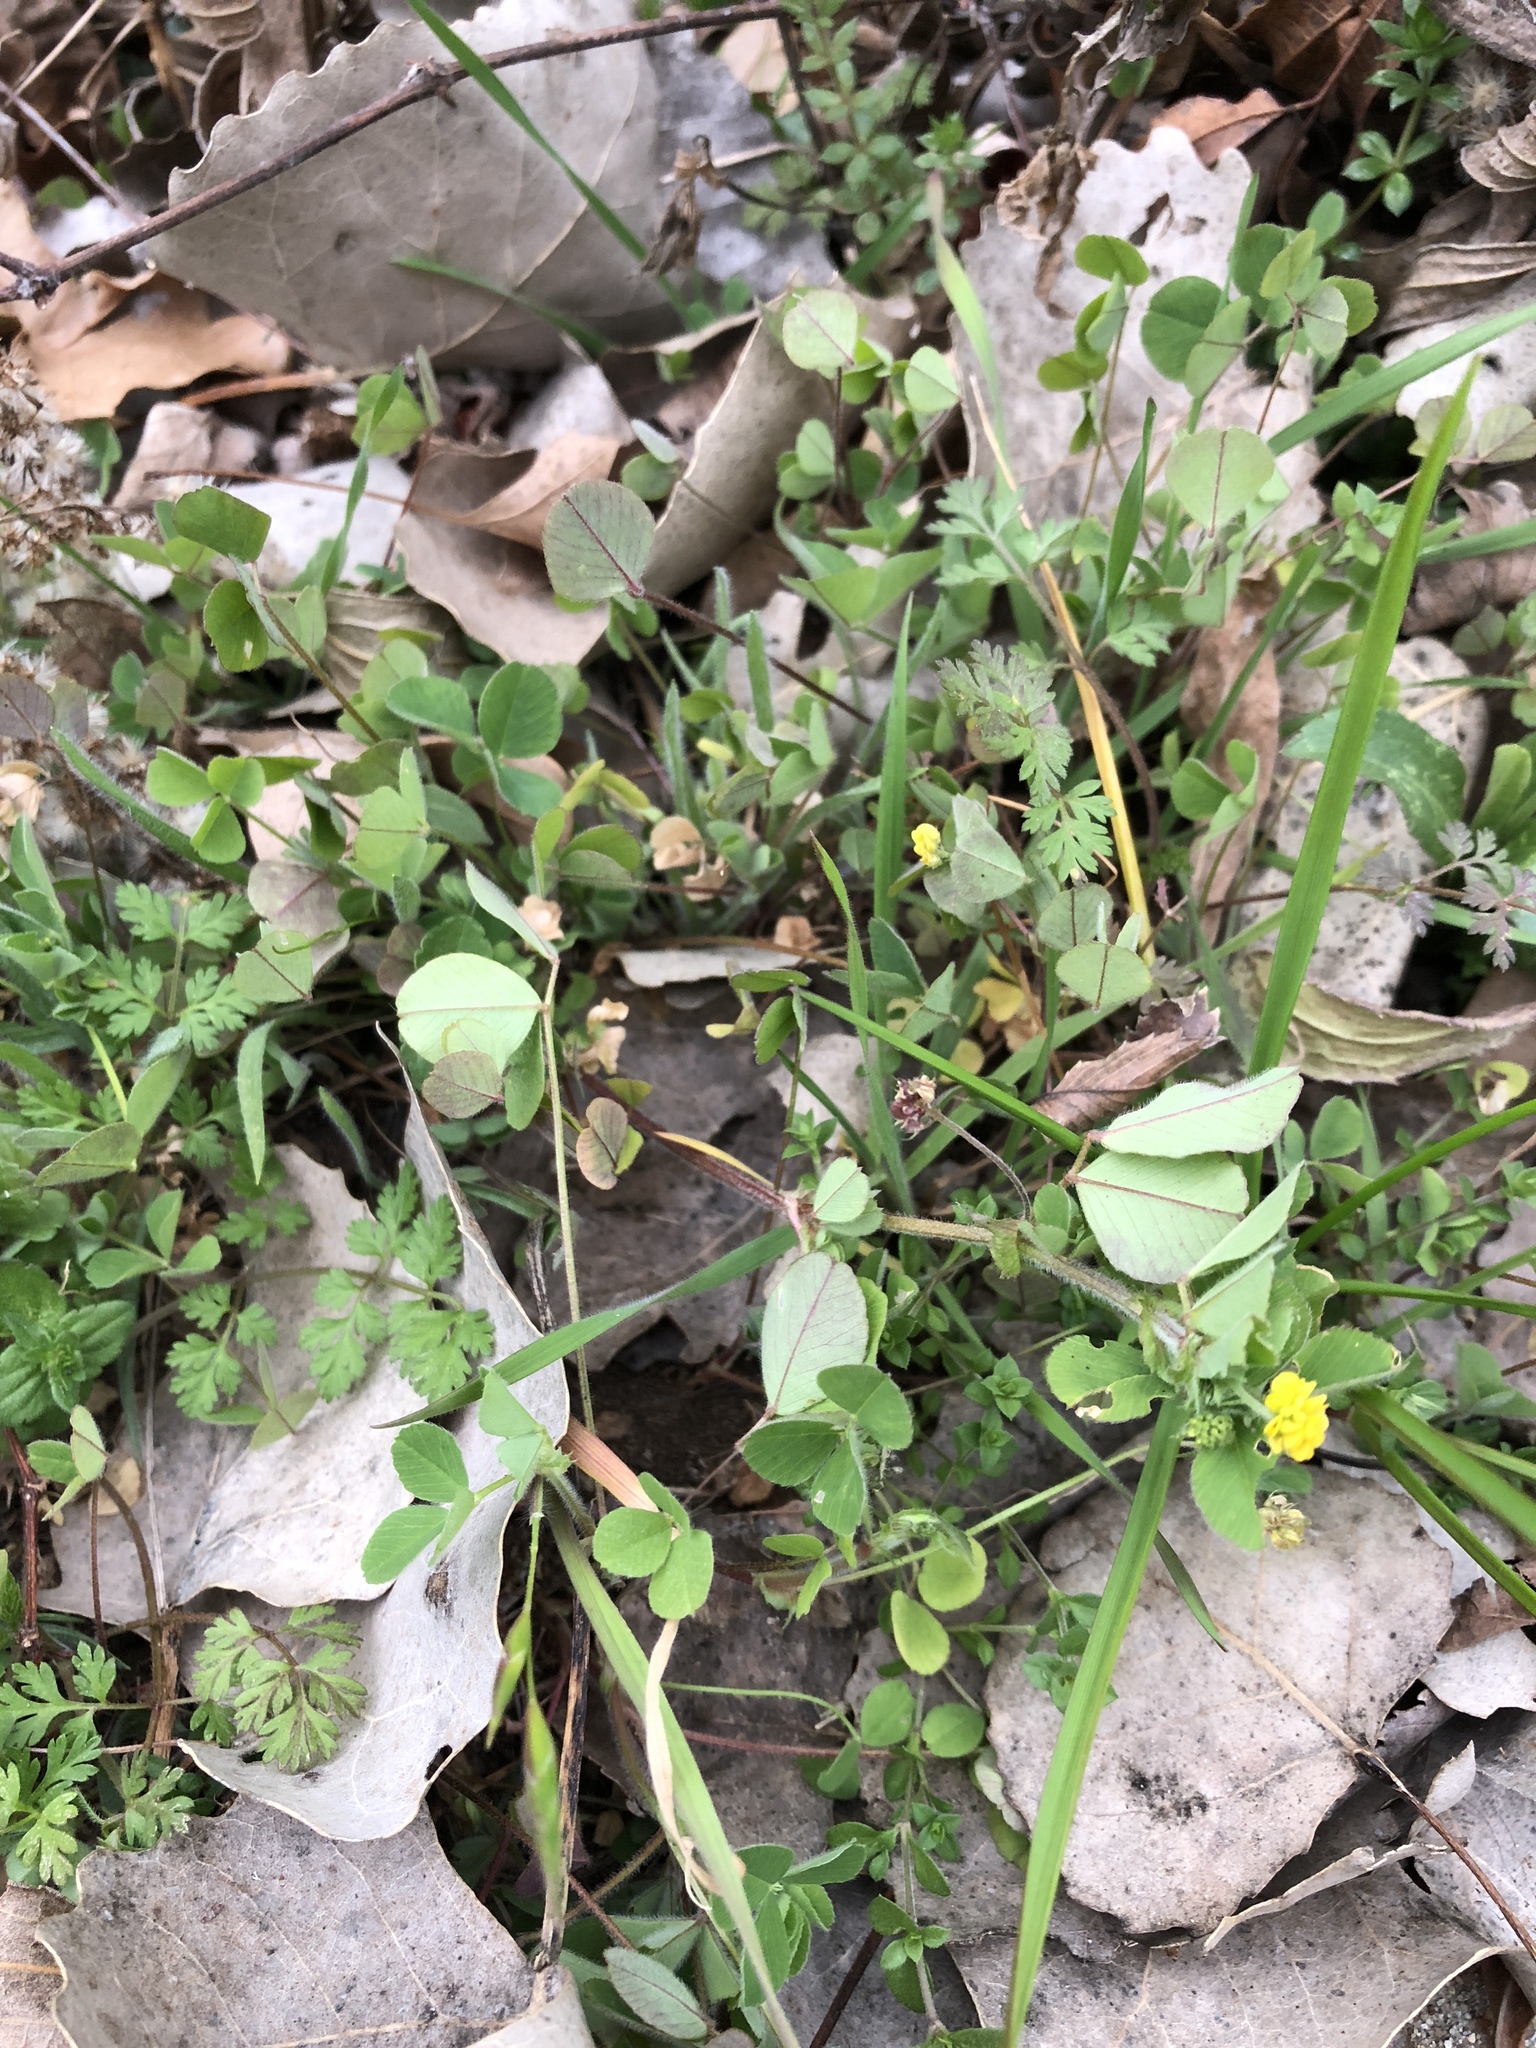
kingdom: Plantae
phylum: Tracheophyta
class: Magnoliopsida
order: Fabales
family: Fabaceae
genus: Medicago
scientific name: Medicago lupulina
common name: Black medick
